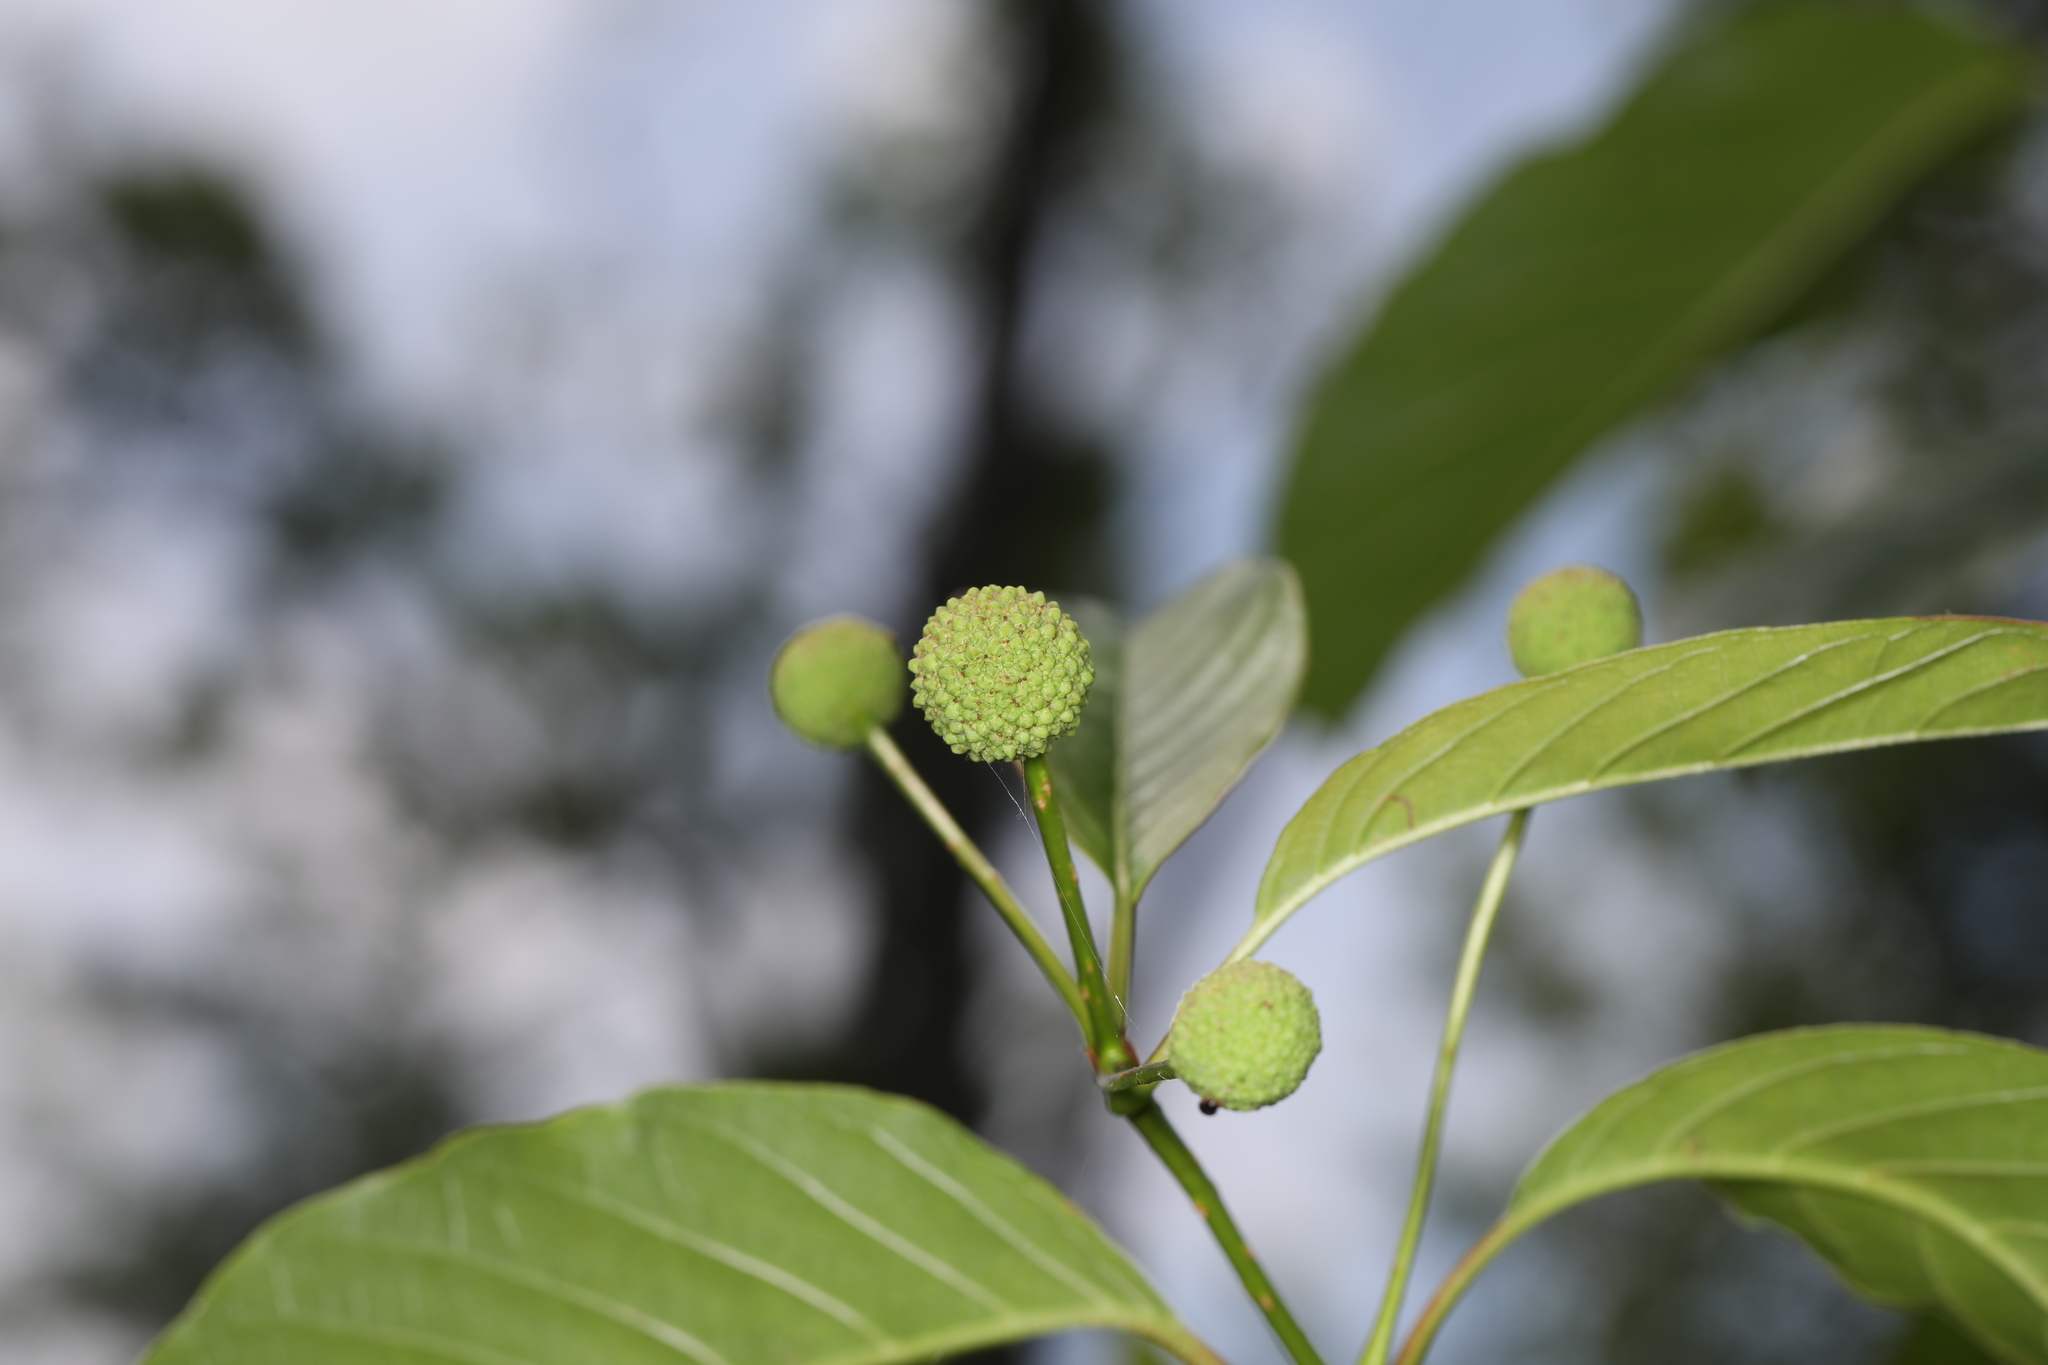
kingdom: Plantae
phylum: Tracheophyta
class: Magnoliopsida
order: Gentianales
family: Rubiaceae
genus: Cephalanthus
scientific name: Cephalanthus occidentalis
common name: Button-willow
